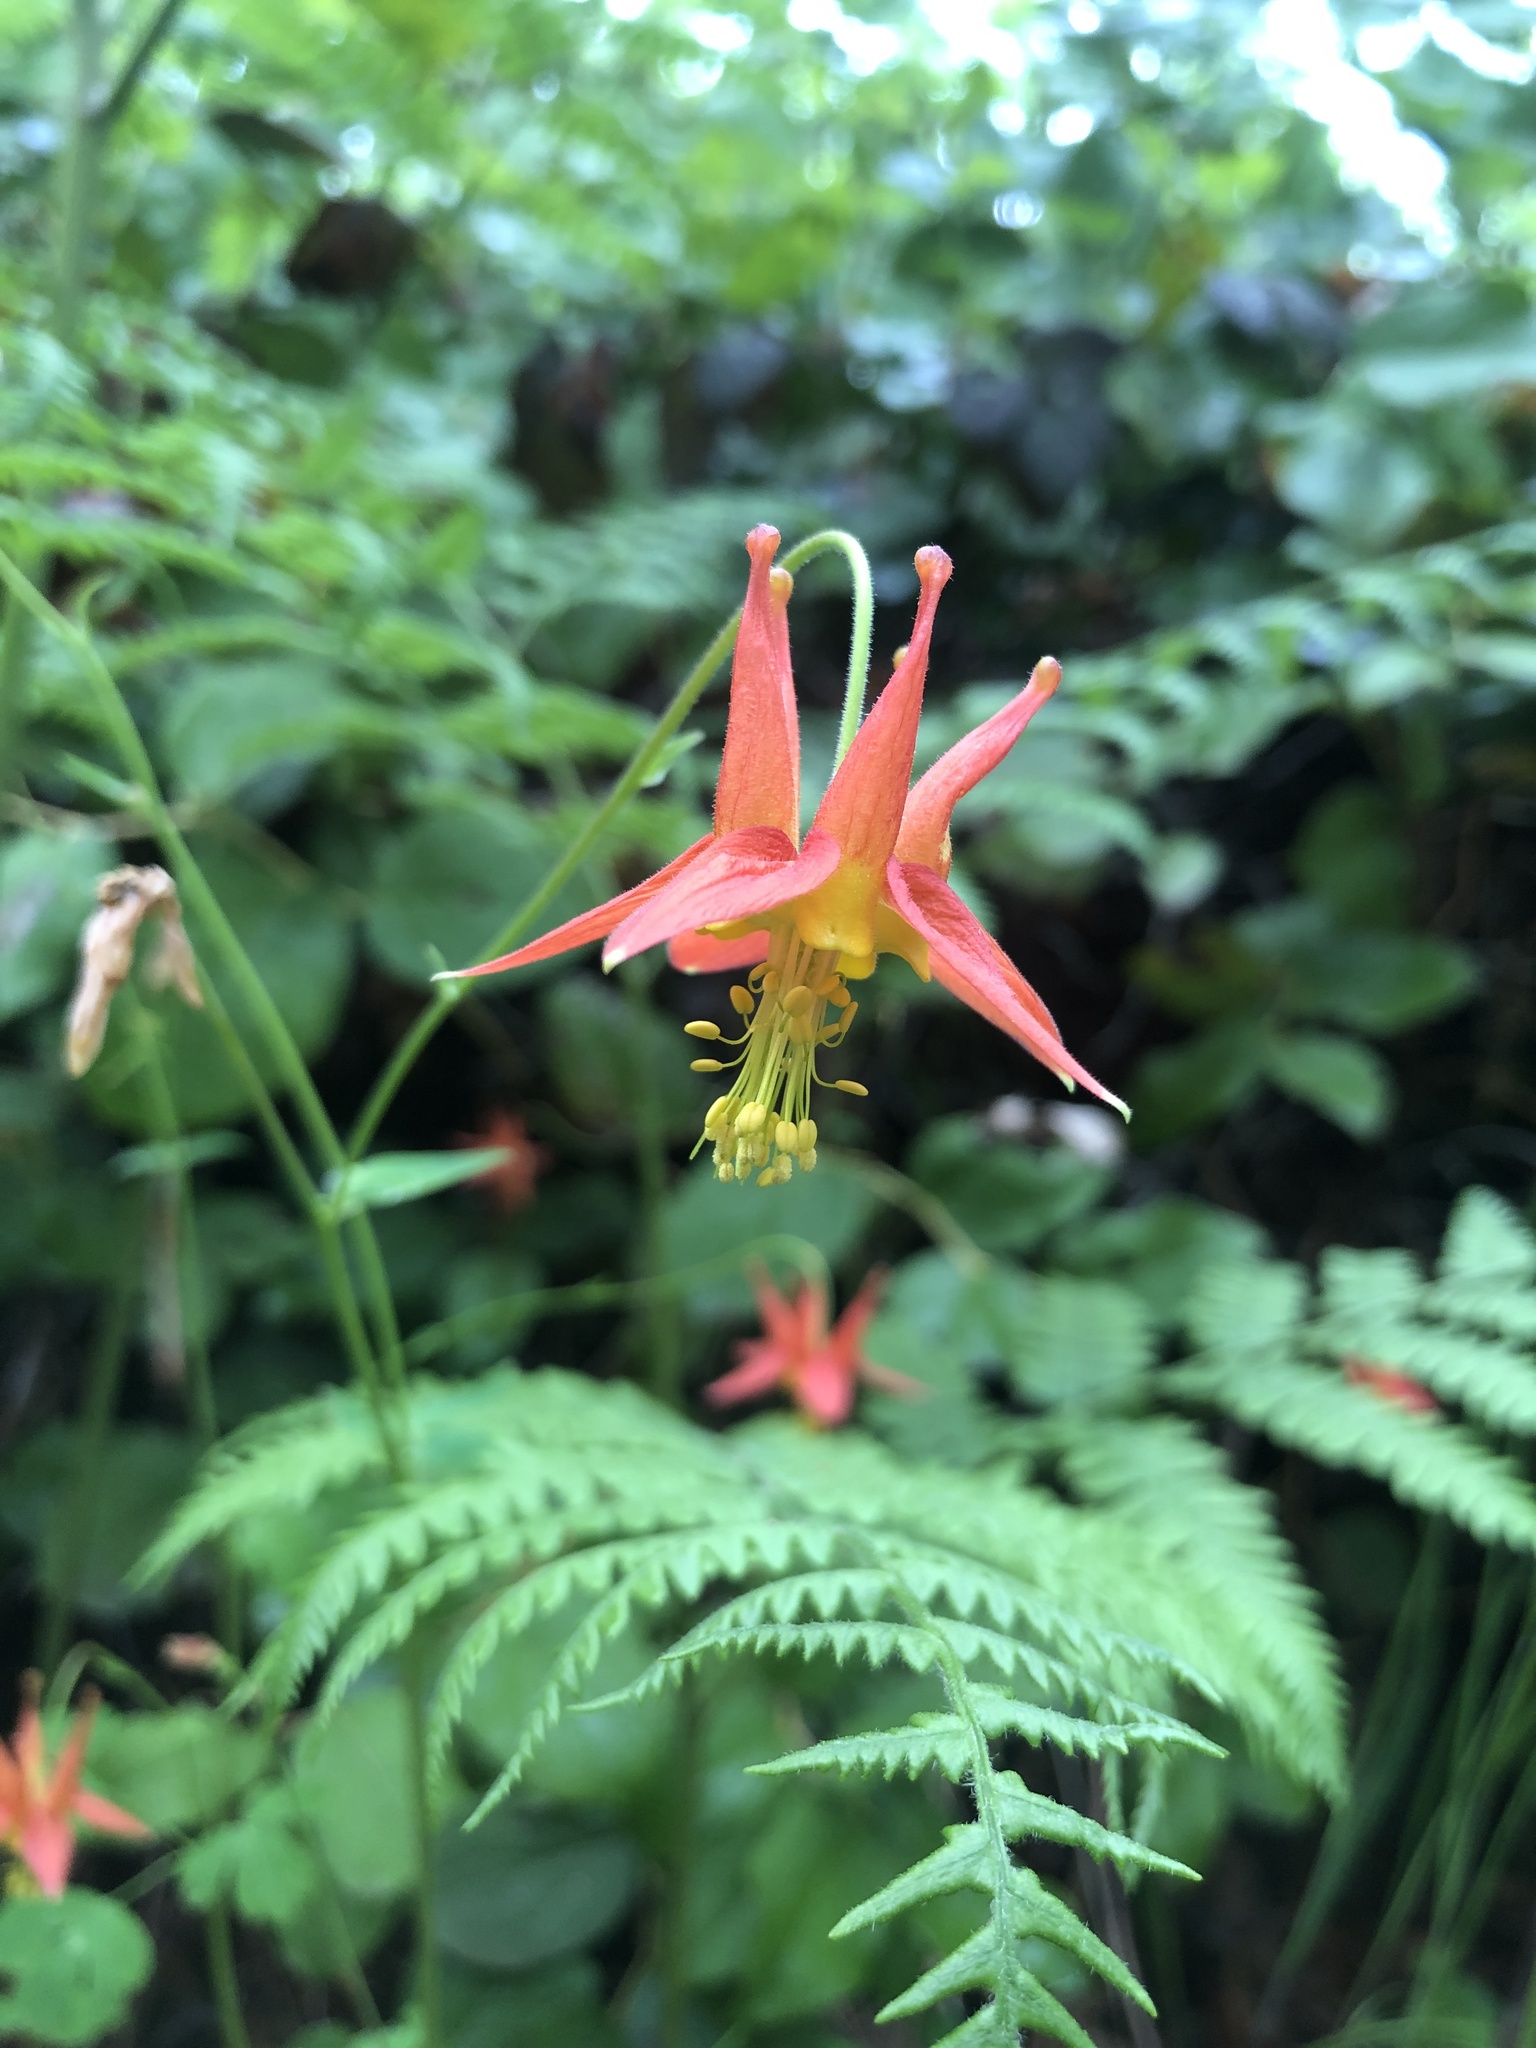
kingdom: Plantae
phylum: Tracheophyta
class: Magnoliopsida
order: Ranunculales
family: Ranunculaceae
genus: Aquilegia
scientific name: Aquilegia formosa
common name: Sitka columbine
